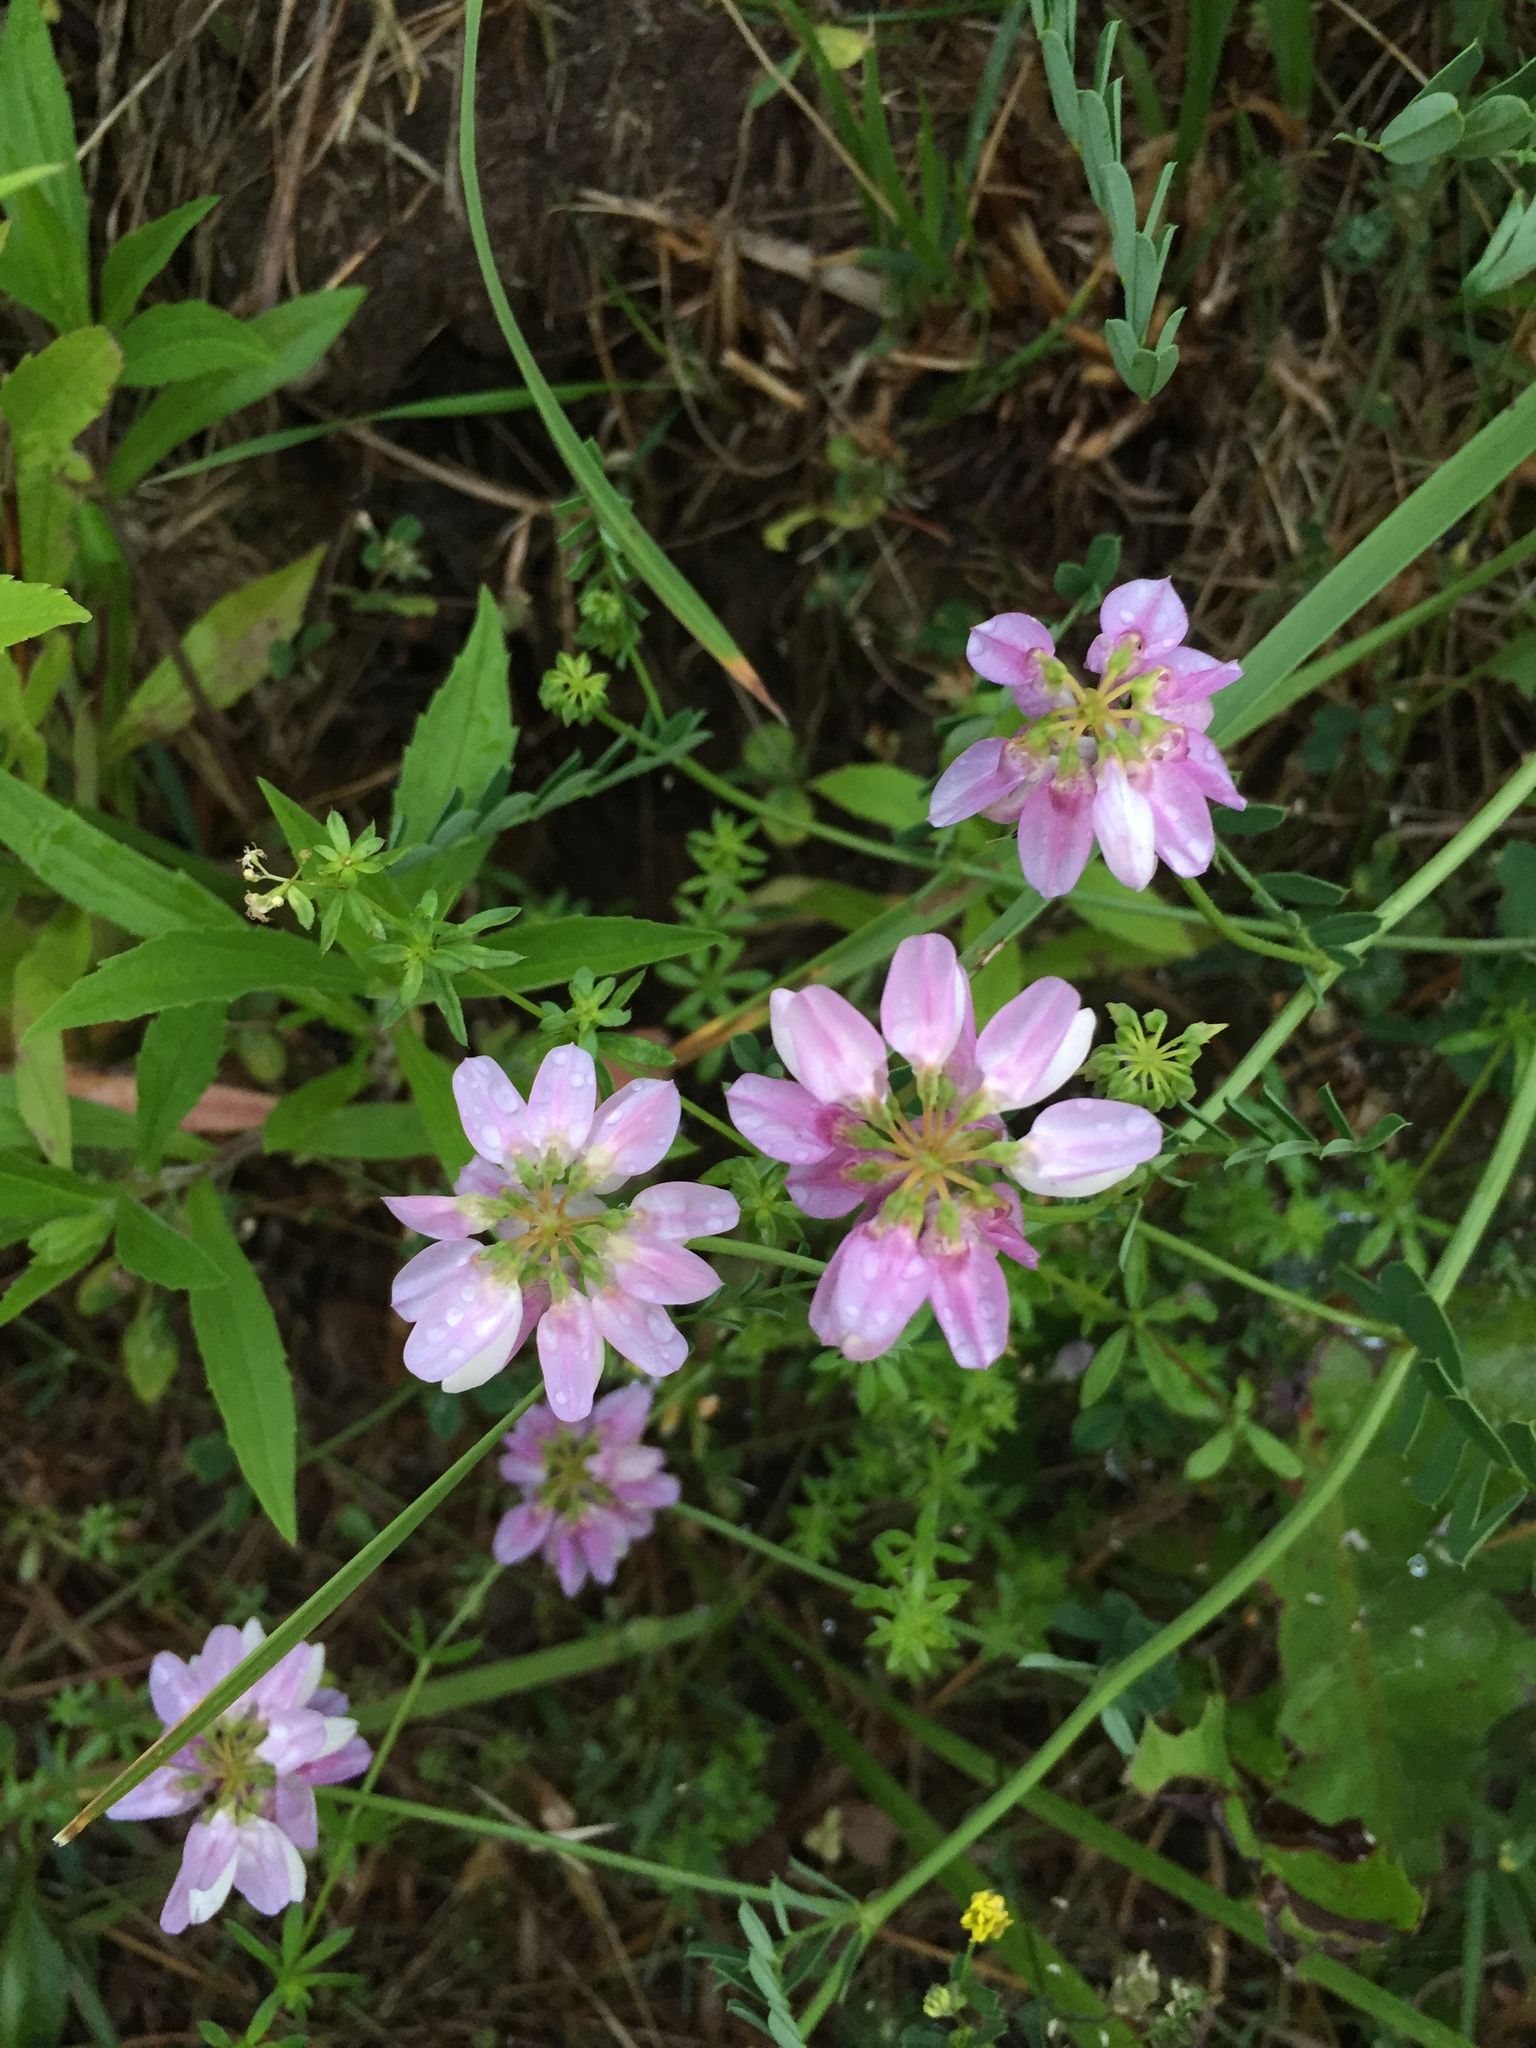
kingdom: Plantae
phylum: Tracheophyta
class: Magnoliopsida
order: Fabales
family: Fabaceae
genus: Coronilla
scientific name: Coronilla varia
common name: Crownvetch
